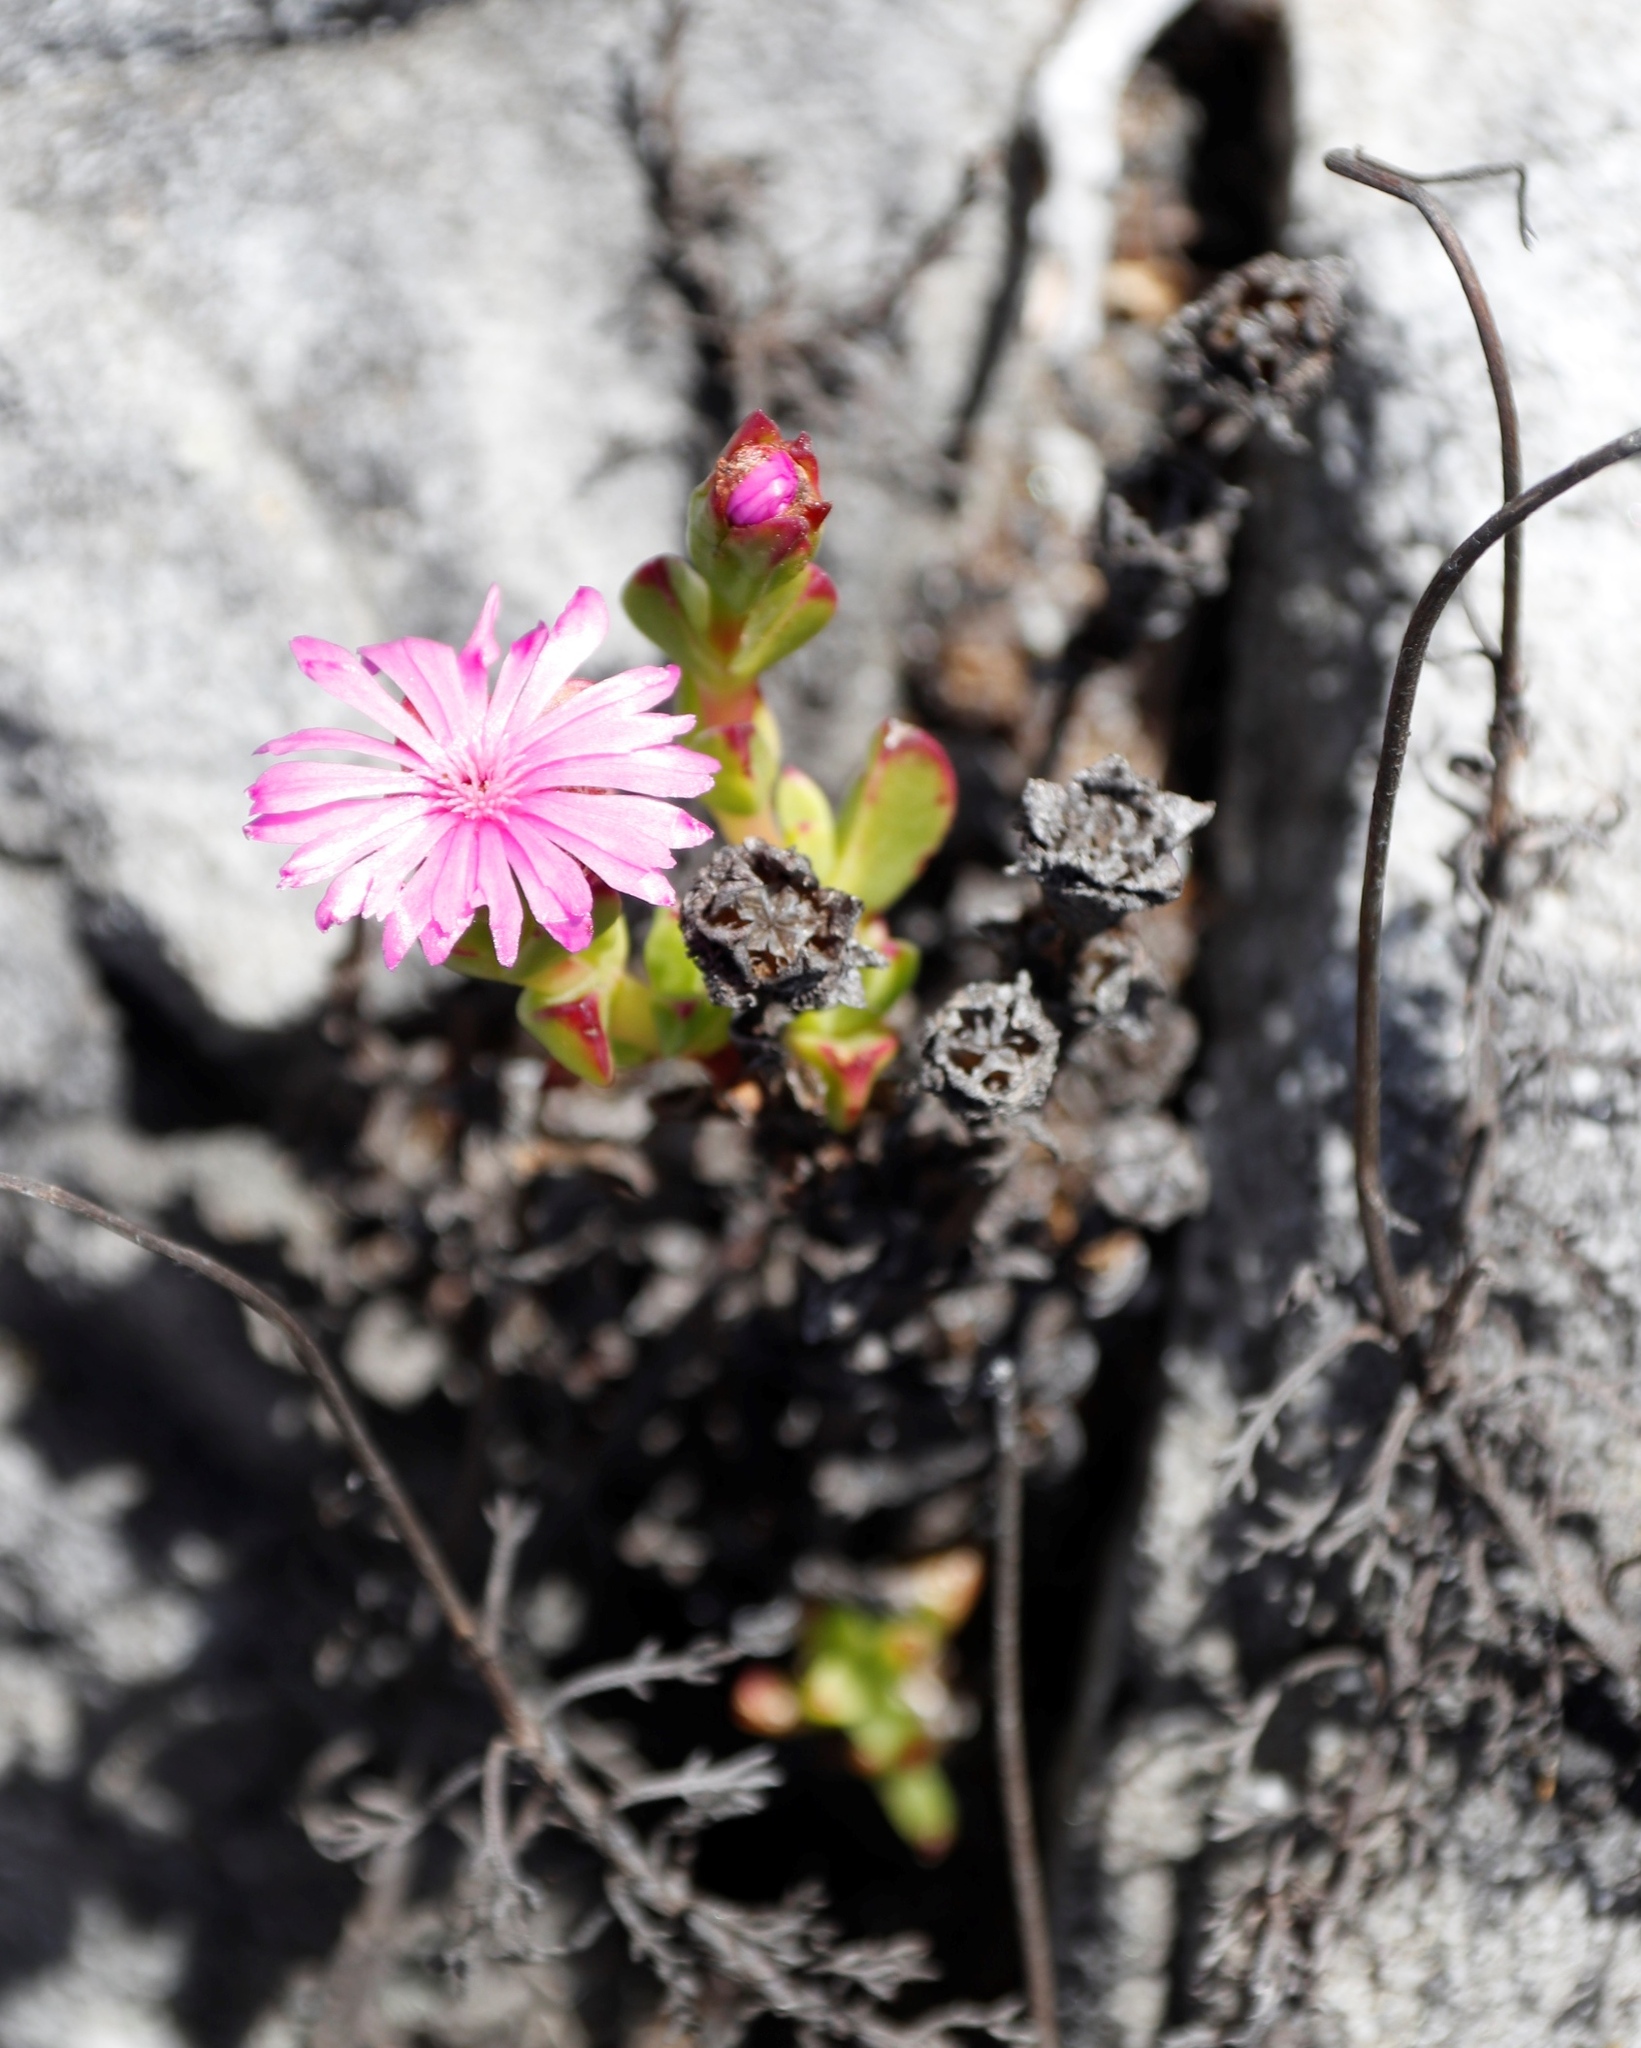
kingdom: Plantae
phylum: Tracheophyta
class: Magnoliopsida
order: Caryophyllales
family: Aizoaceae
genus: Erepsia
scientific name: Erepsia inclaudens
